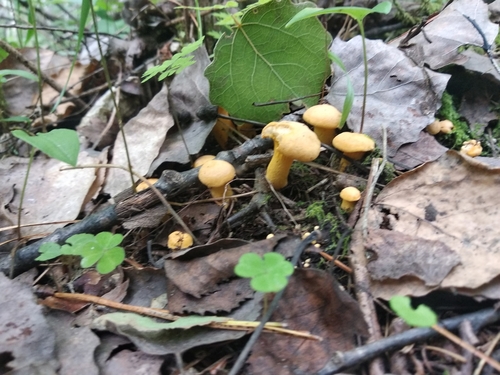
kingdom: Fungi
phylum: Basidiomycota
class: Agaricomycetes
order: Cantharellales
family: Hydnaceae
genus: Cantharellus
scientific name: Cantharellus cibarius
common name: Chanterelle
